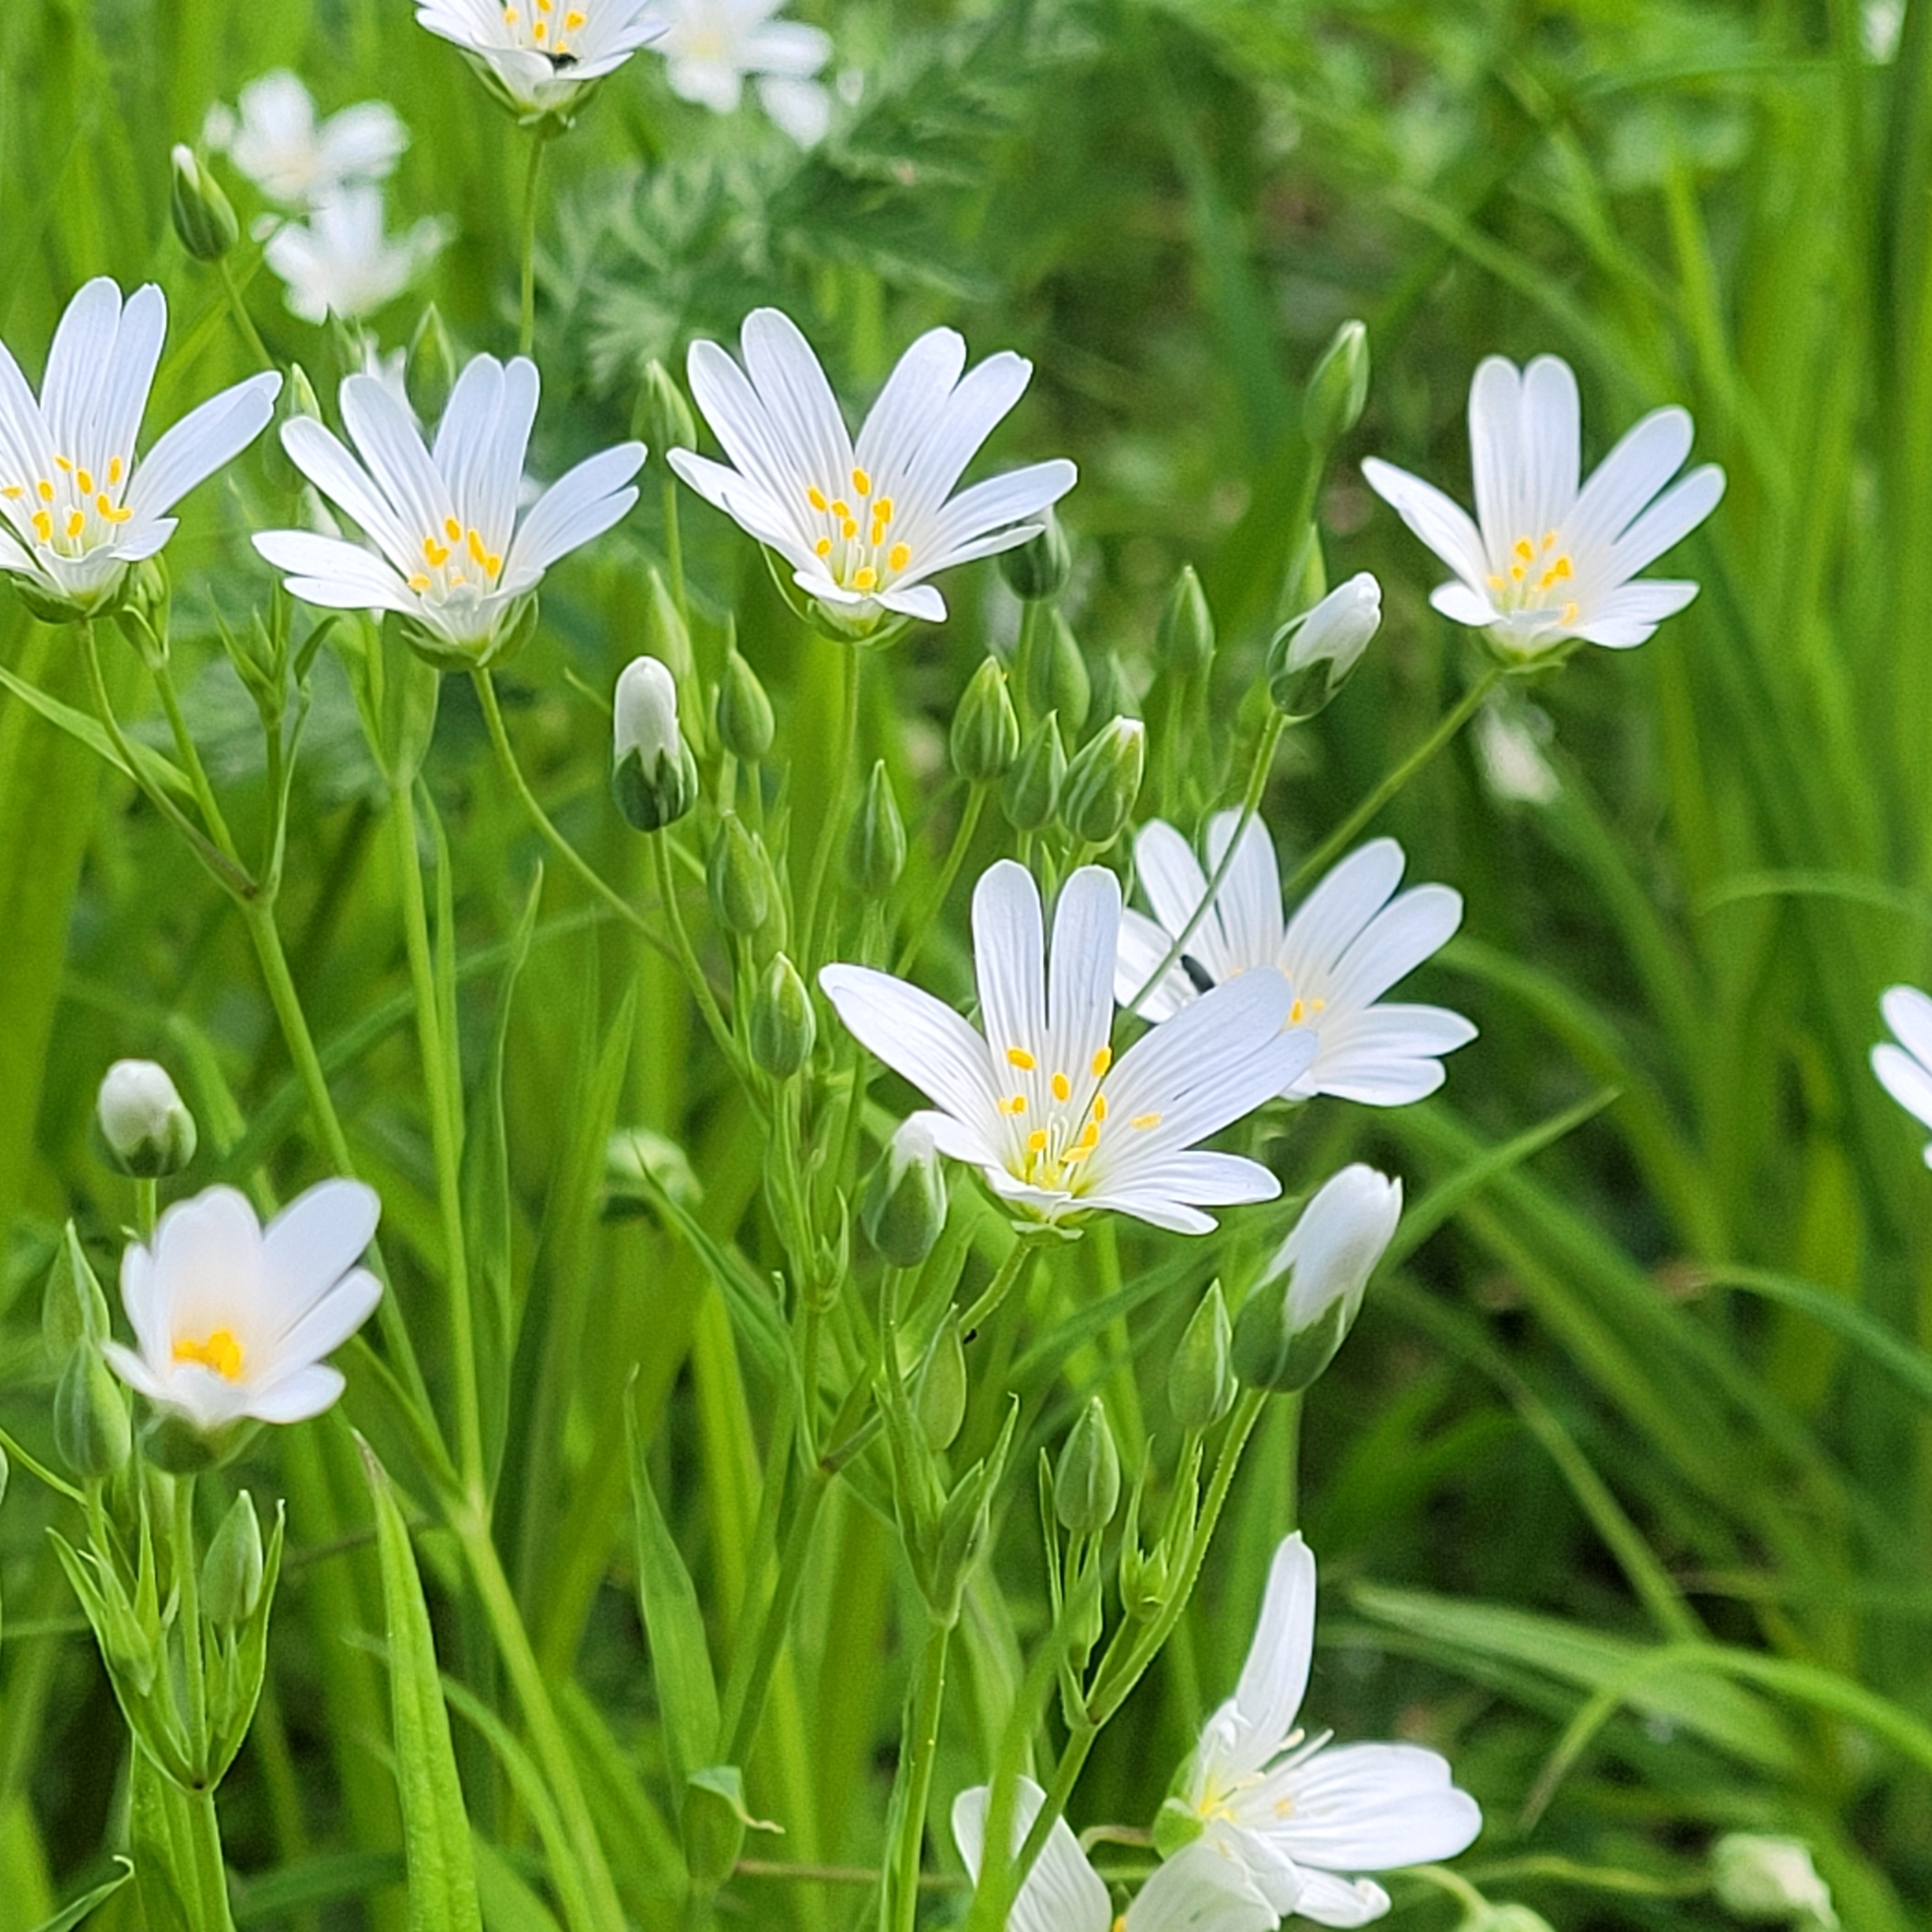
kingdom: Plantae
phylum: Tracheophyta
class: Magnoliopsida
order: Caryophyllales
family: Caryophyllaceae
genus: Rabelera
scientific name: Rabelera holostea
